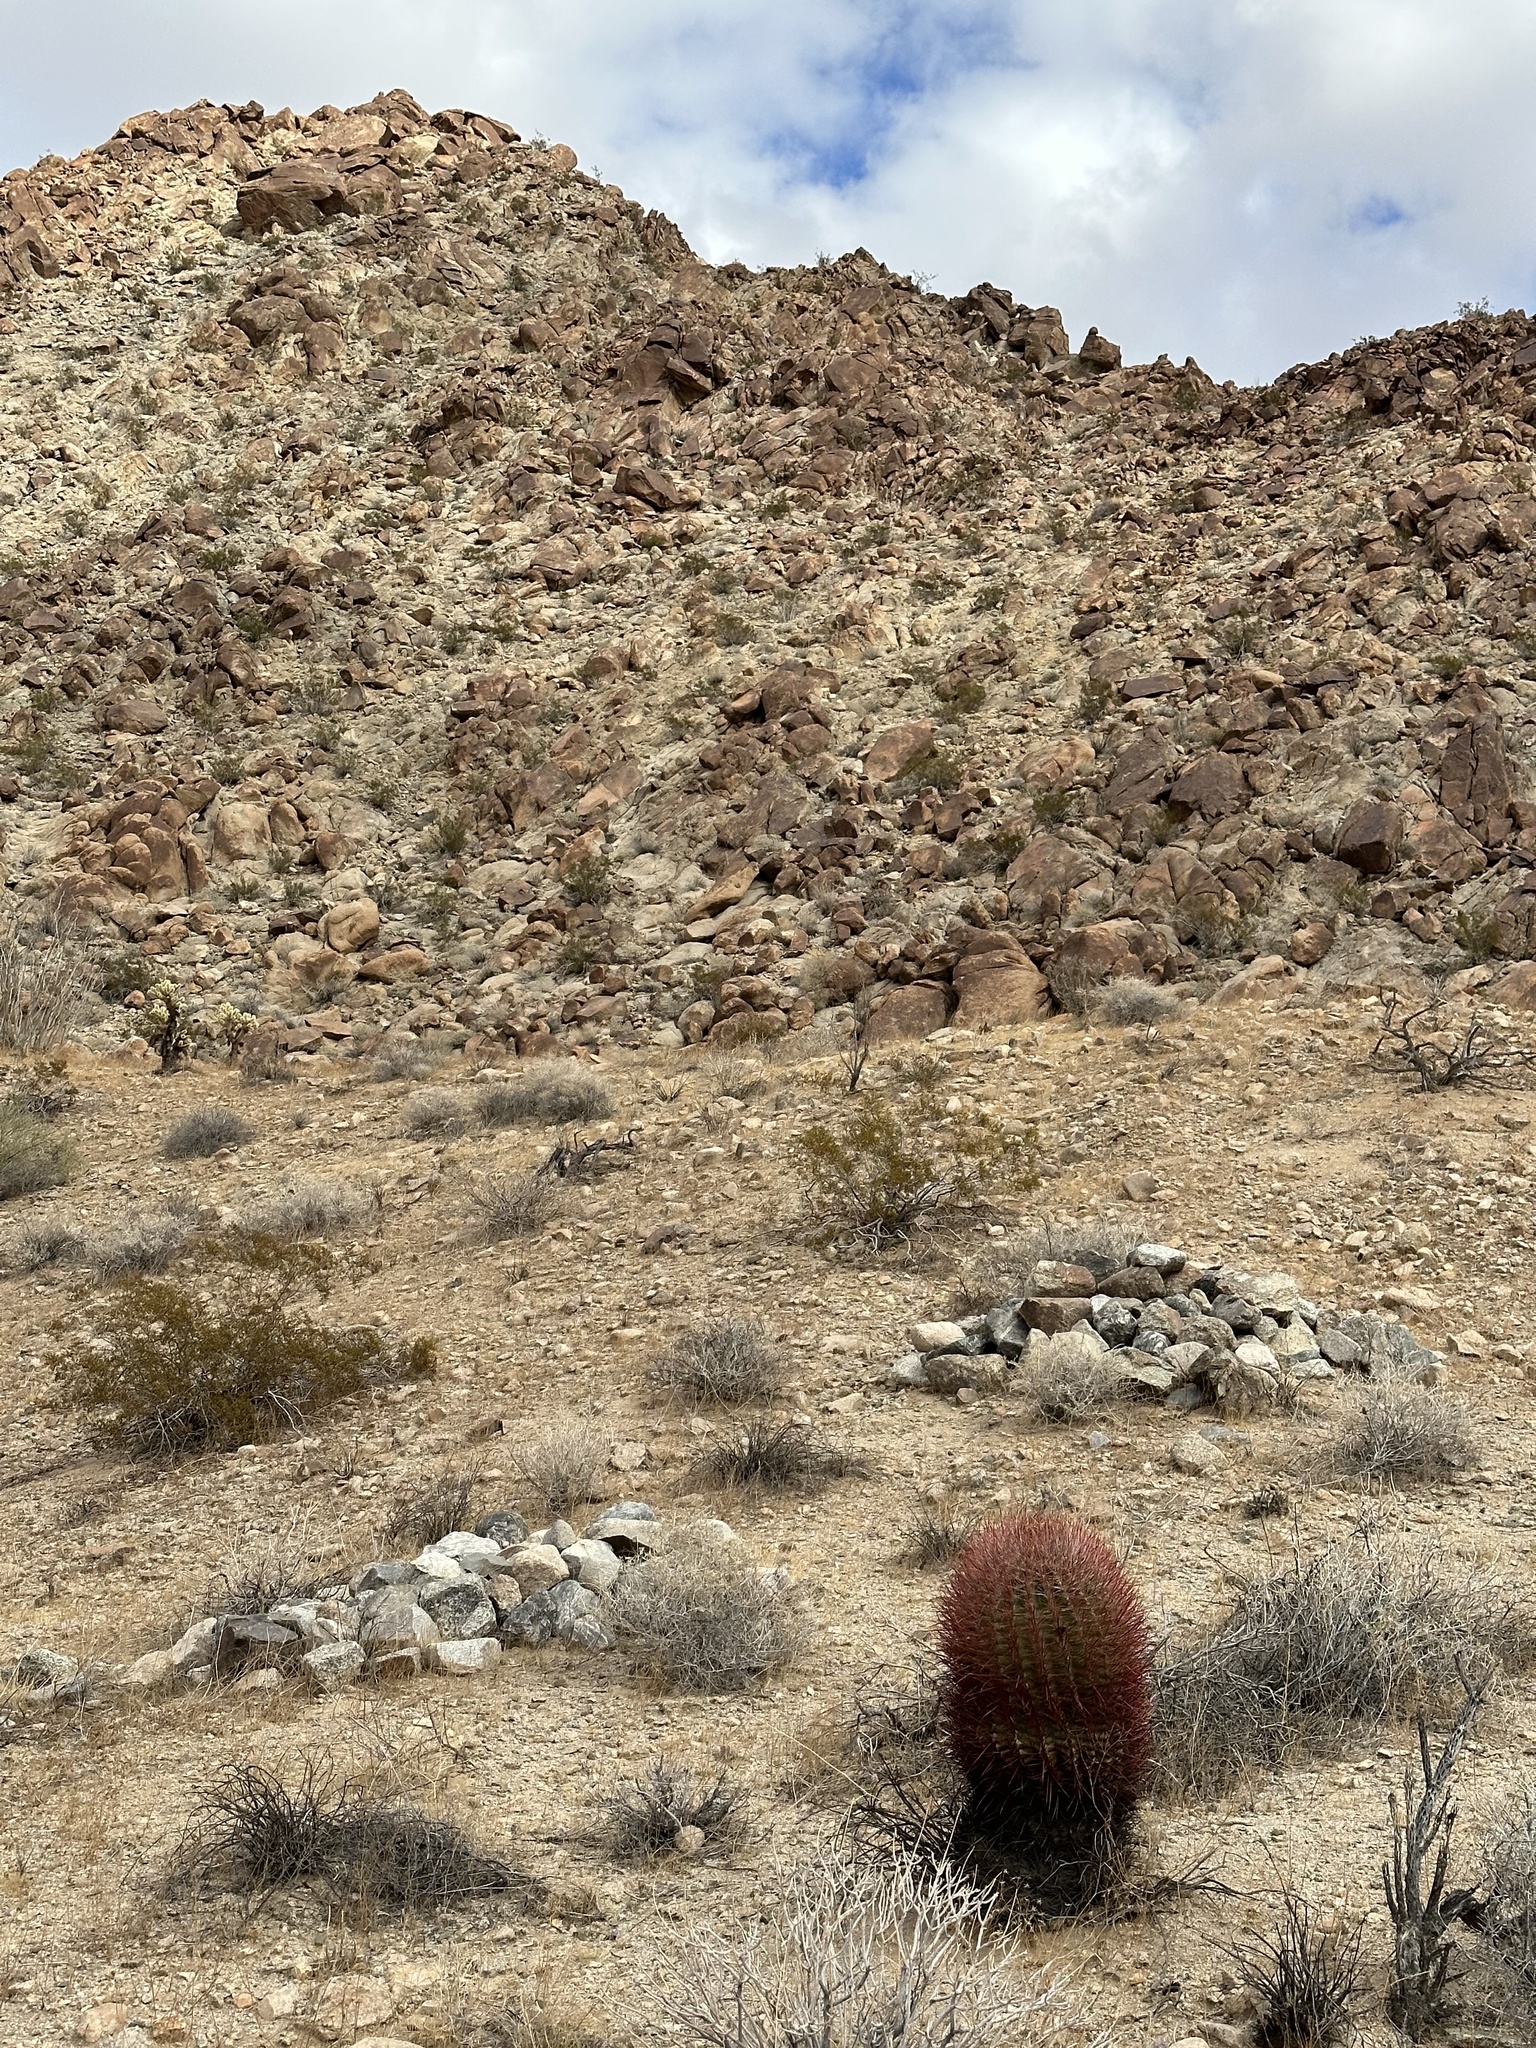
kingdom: Plantae
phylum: Tracheophyta
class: Magnoliopsida
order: Caryophyllales
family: Cactaceae
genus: Ferocactus
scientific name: Ferocactus cylindraceus
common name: California barrel cactus
